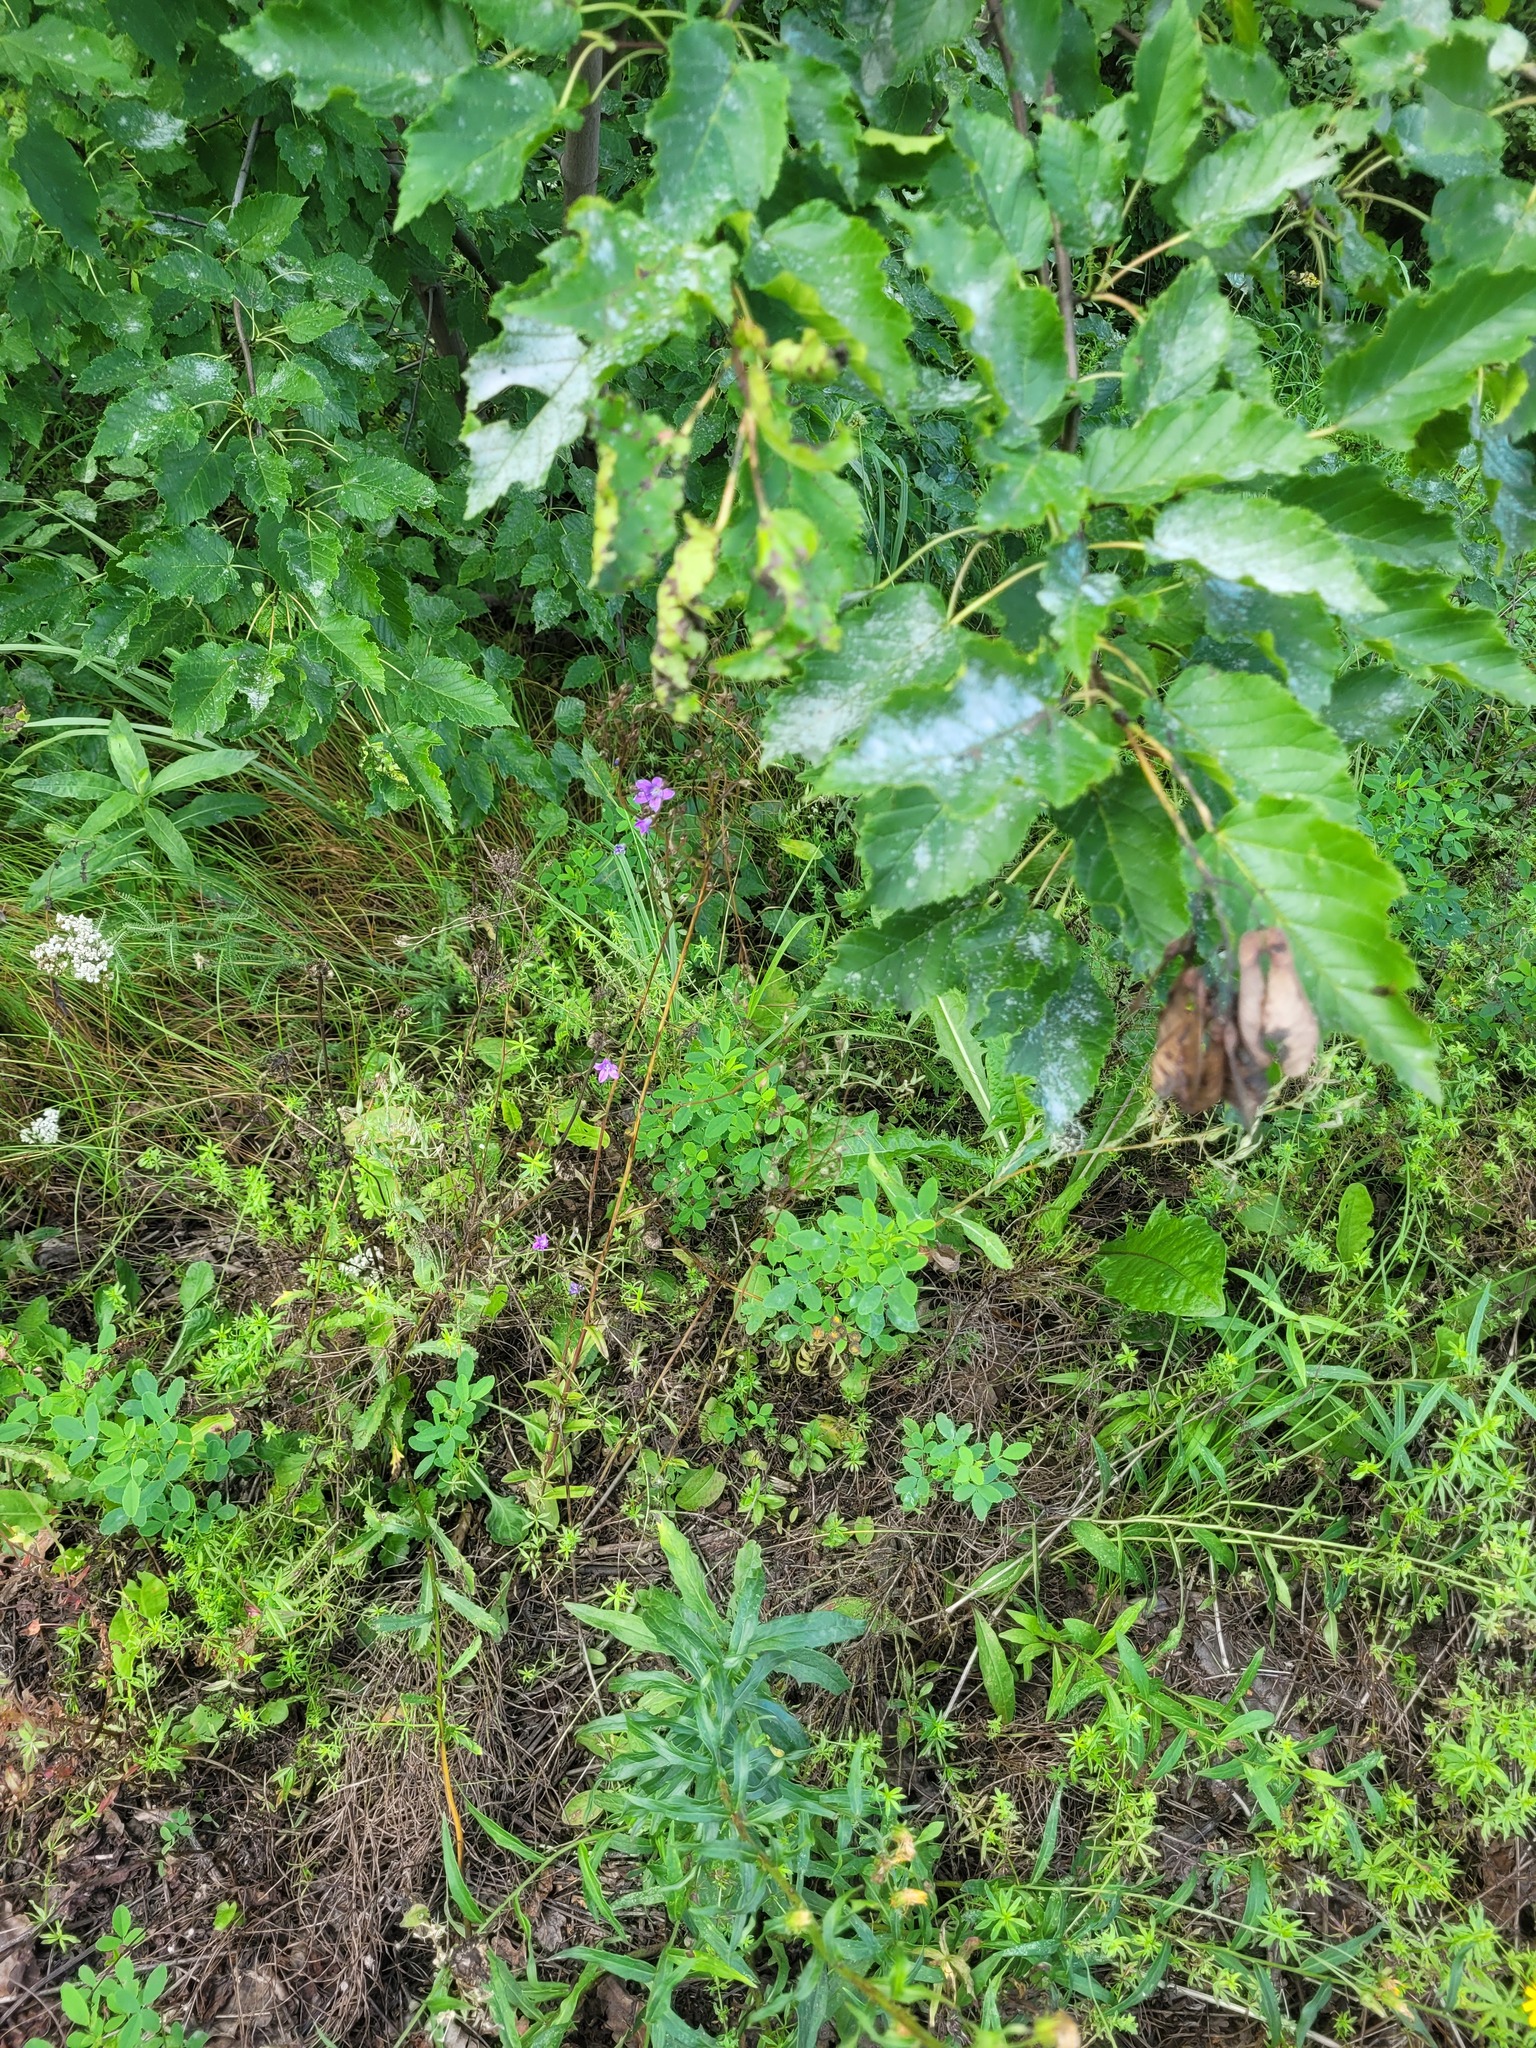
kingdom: Plantae
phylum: Tracheophyta
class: Magnoliopsida
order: Asterales
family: Campanulaceae
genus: Campanula
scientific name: Campanula patula
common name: Spreading bellflower
